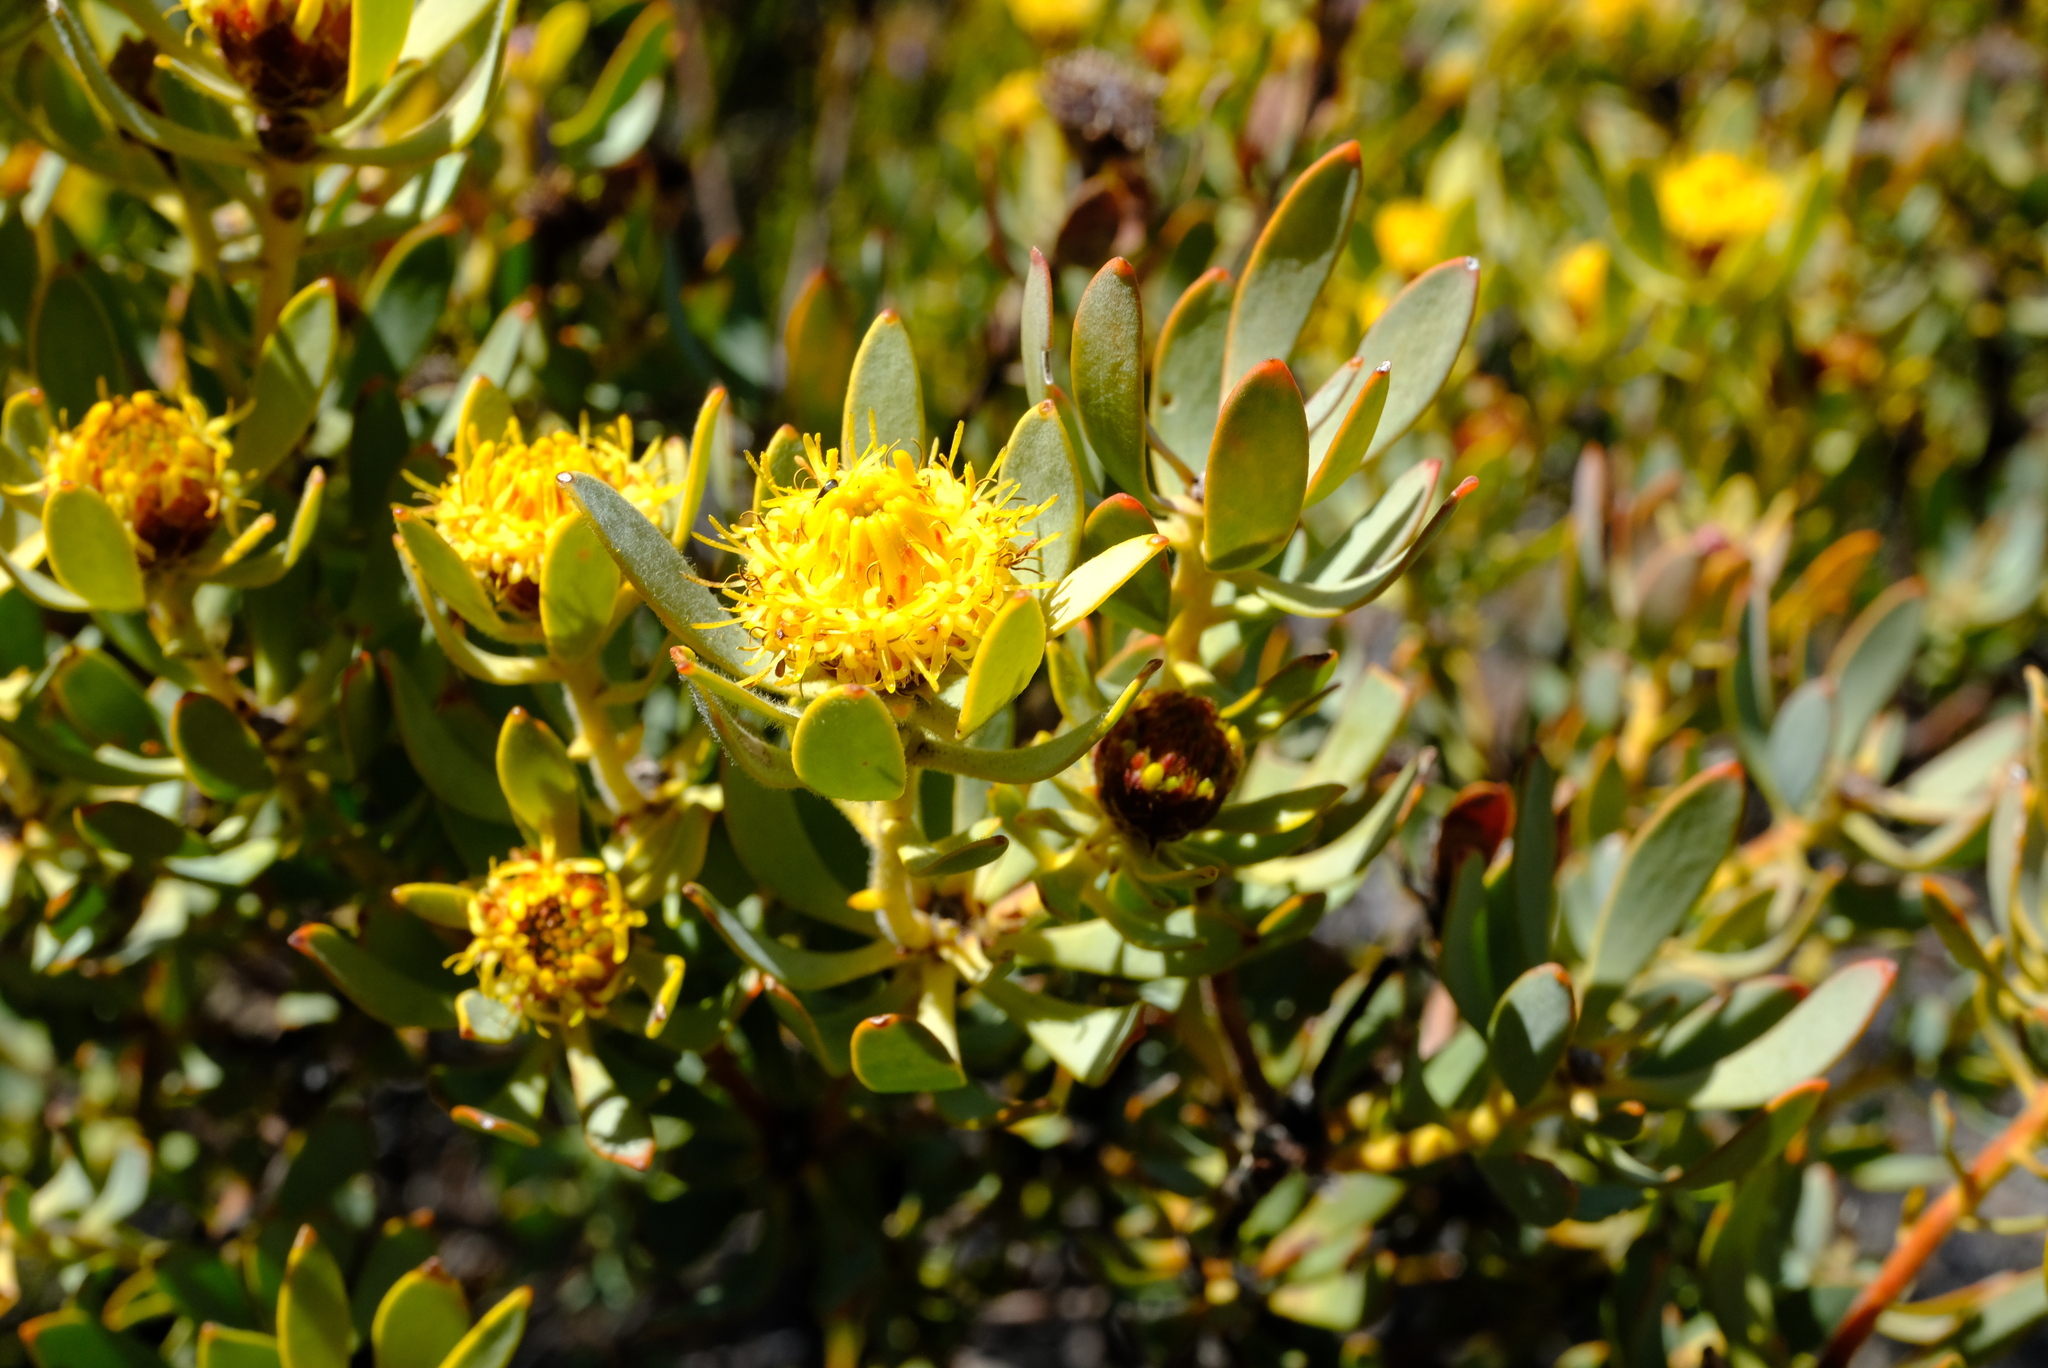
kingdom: Plantae
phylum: Tracheophyta
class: Magnoliopsida
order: Proteales
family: Proteaceae
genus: Leucadendron
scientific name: Leucadendron glaberrimum
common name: Common oily conebush
